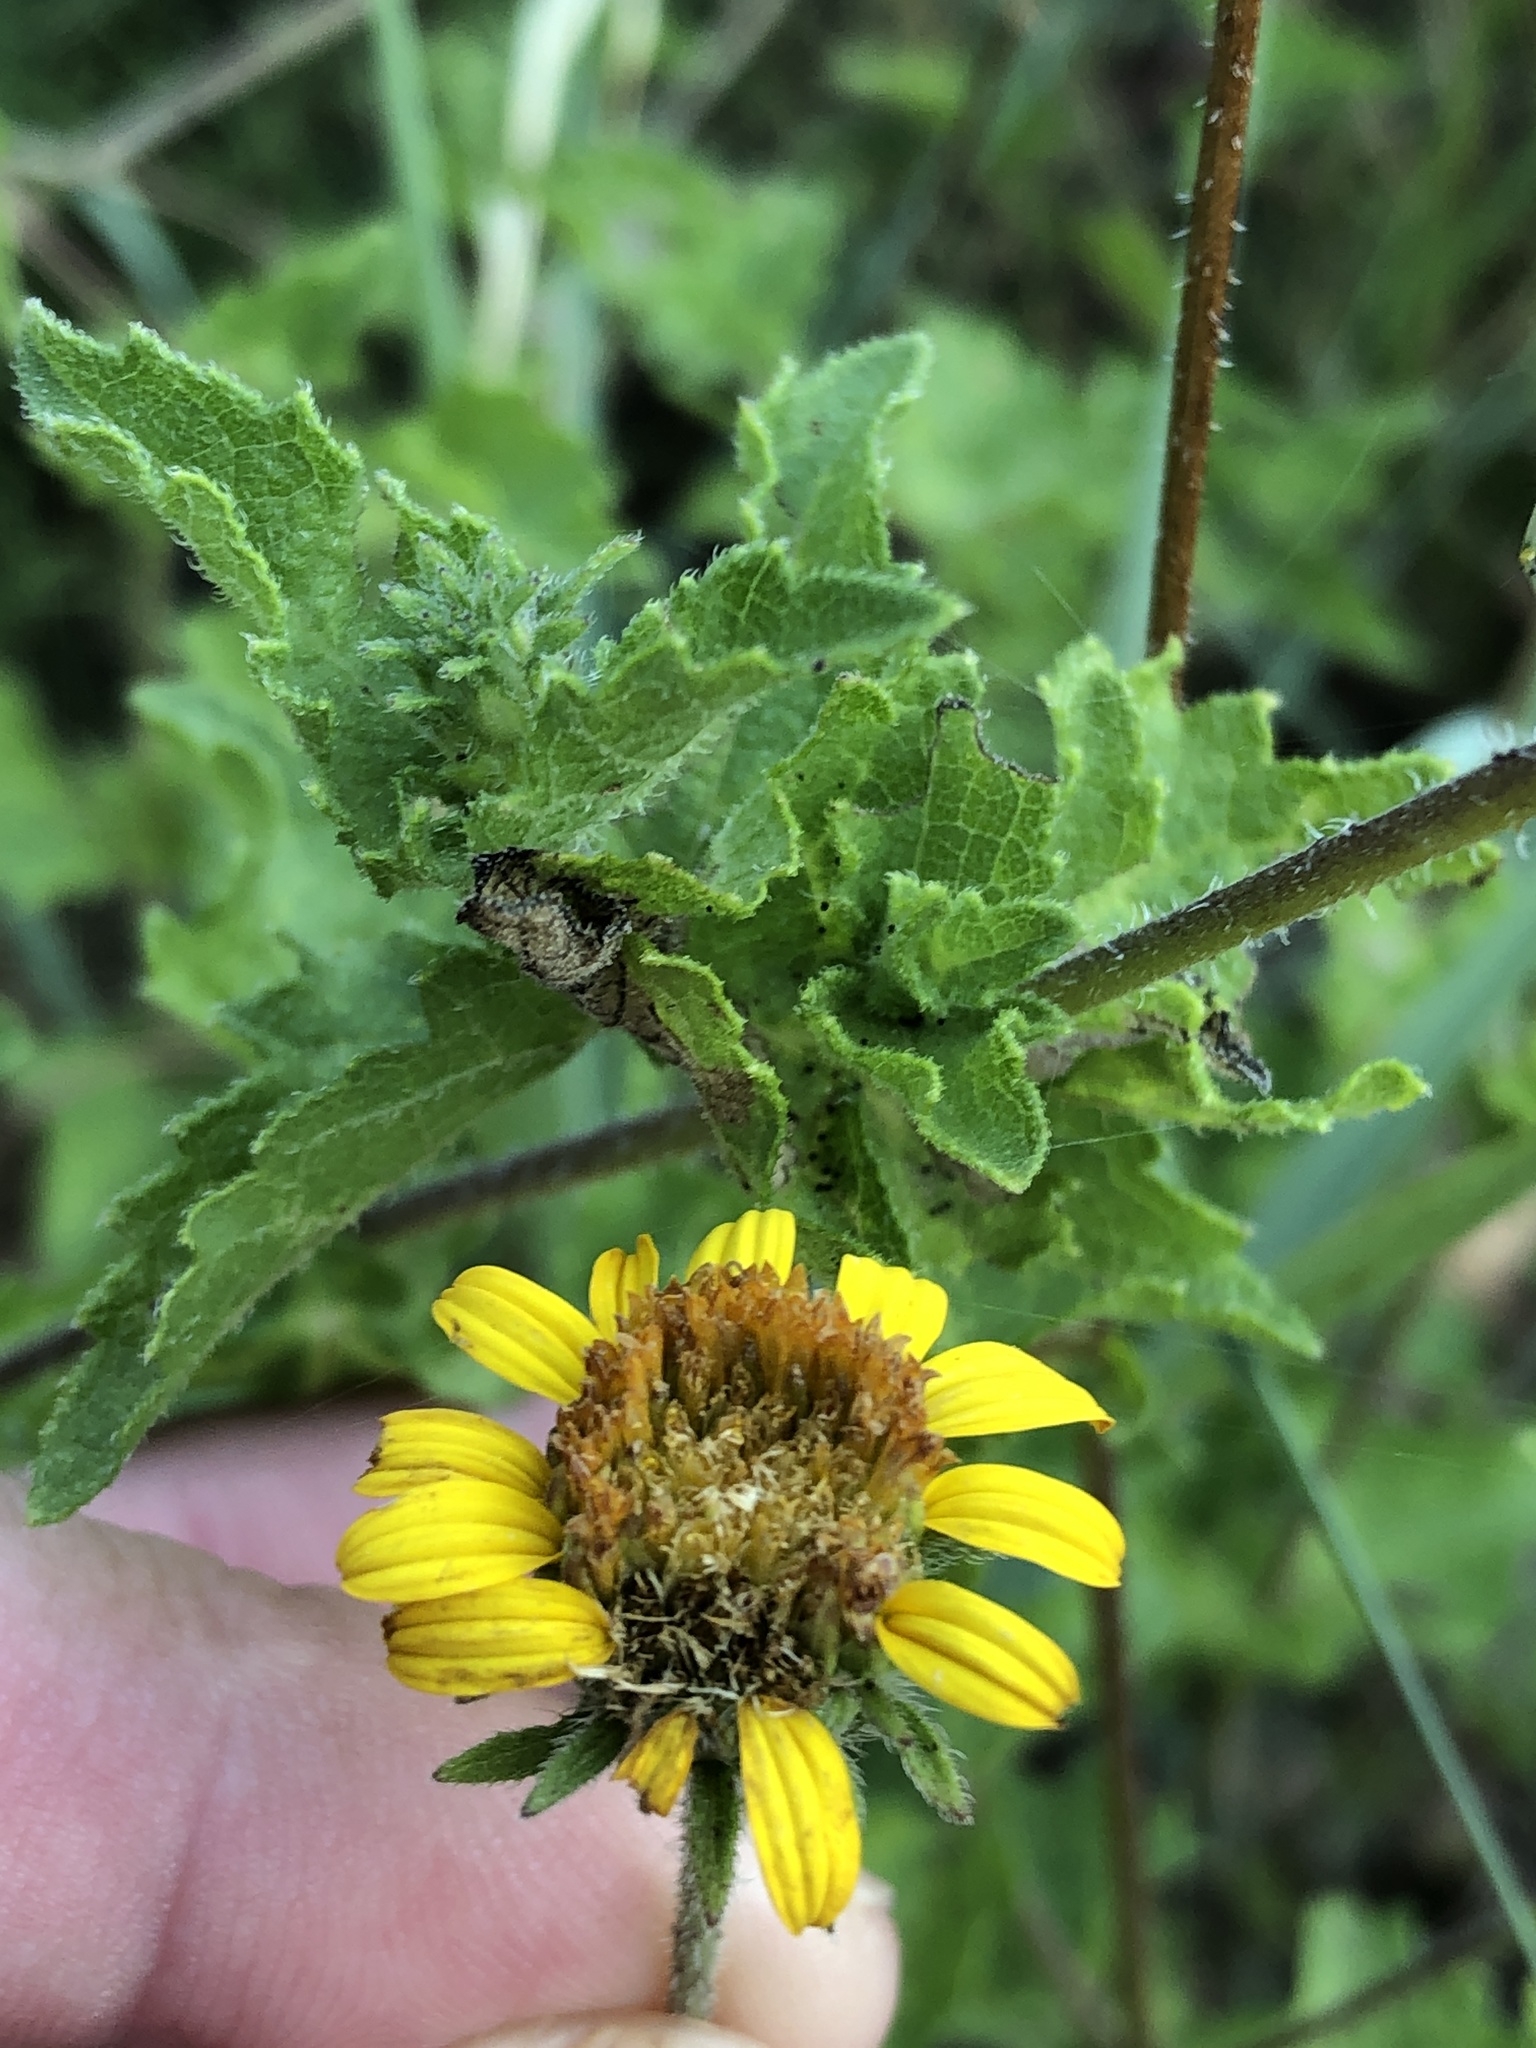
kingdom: Plantae
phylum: Tracheophyta
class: Magnoliopsida
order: Asterales
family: Asteraceae
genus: Simsia
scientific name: Simsia calva
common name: Awnless bush-sunflower
